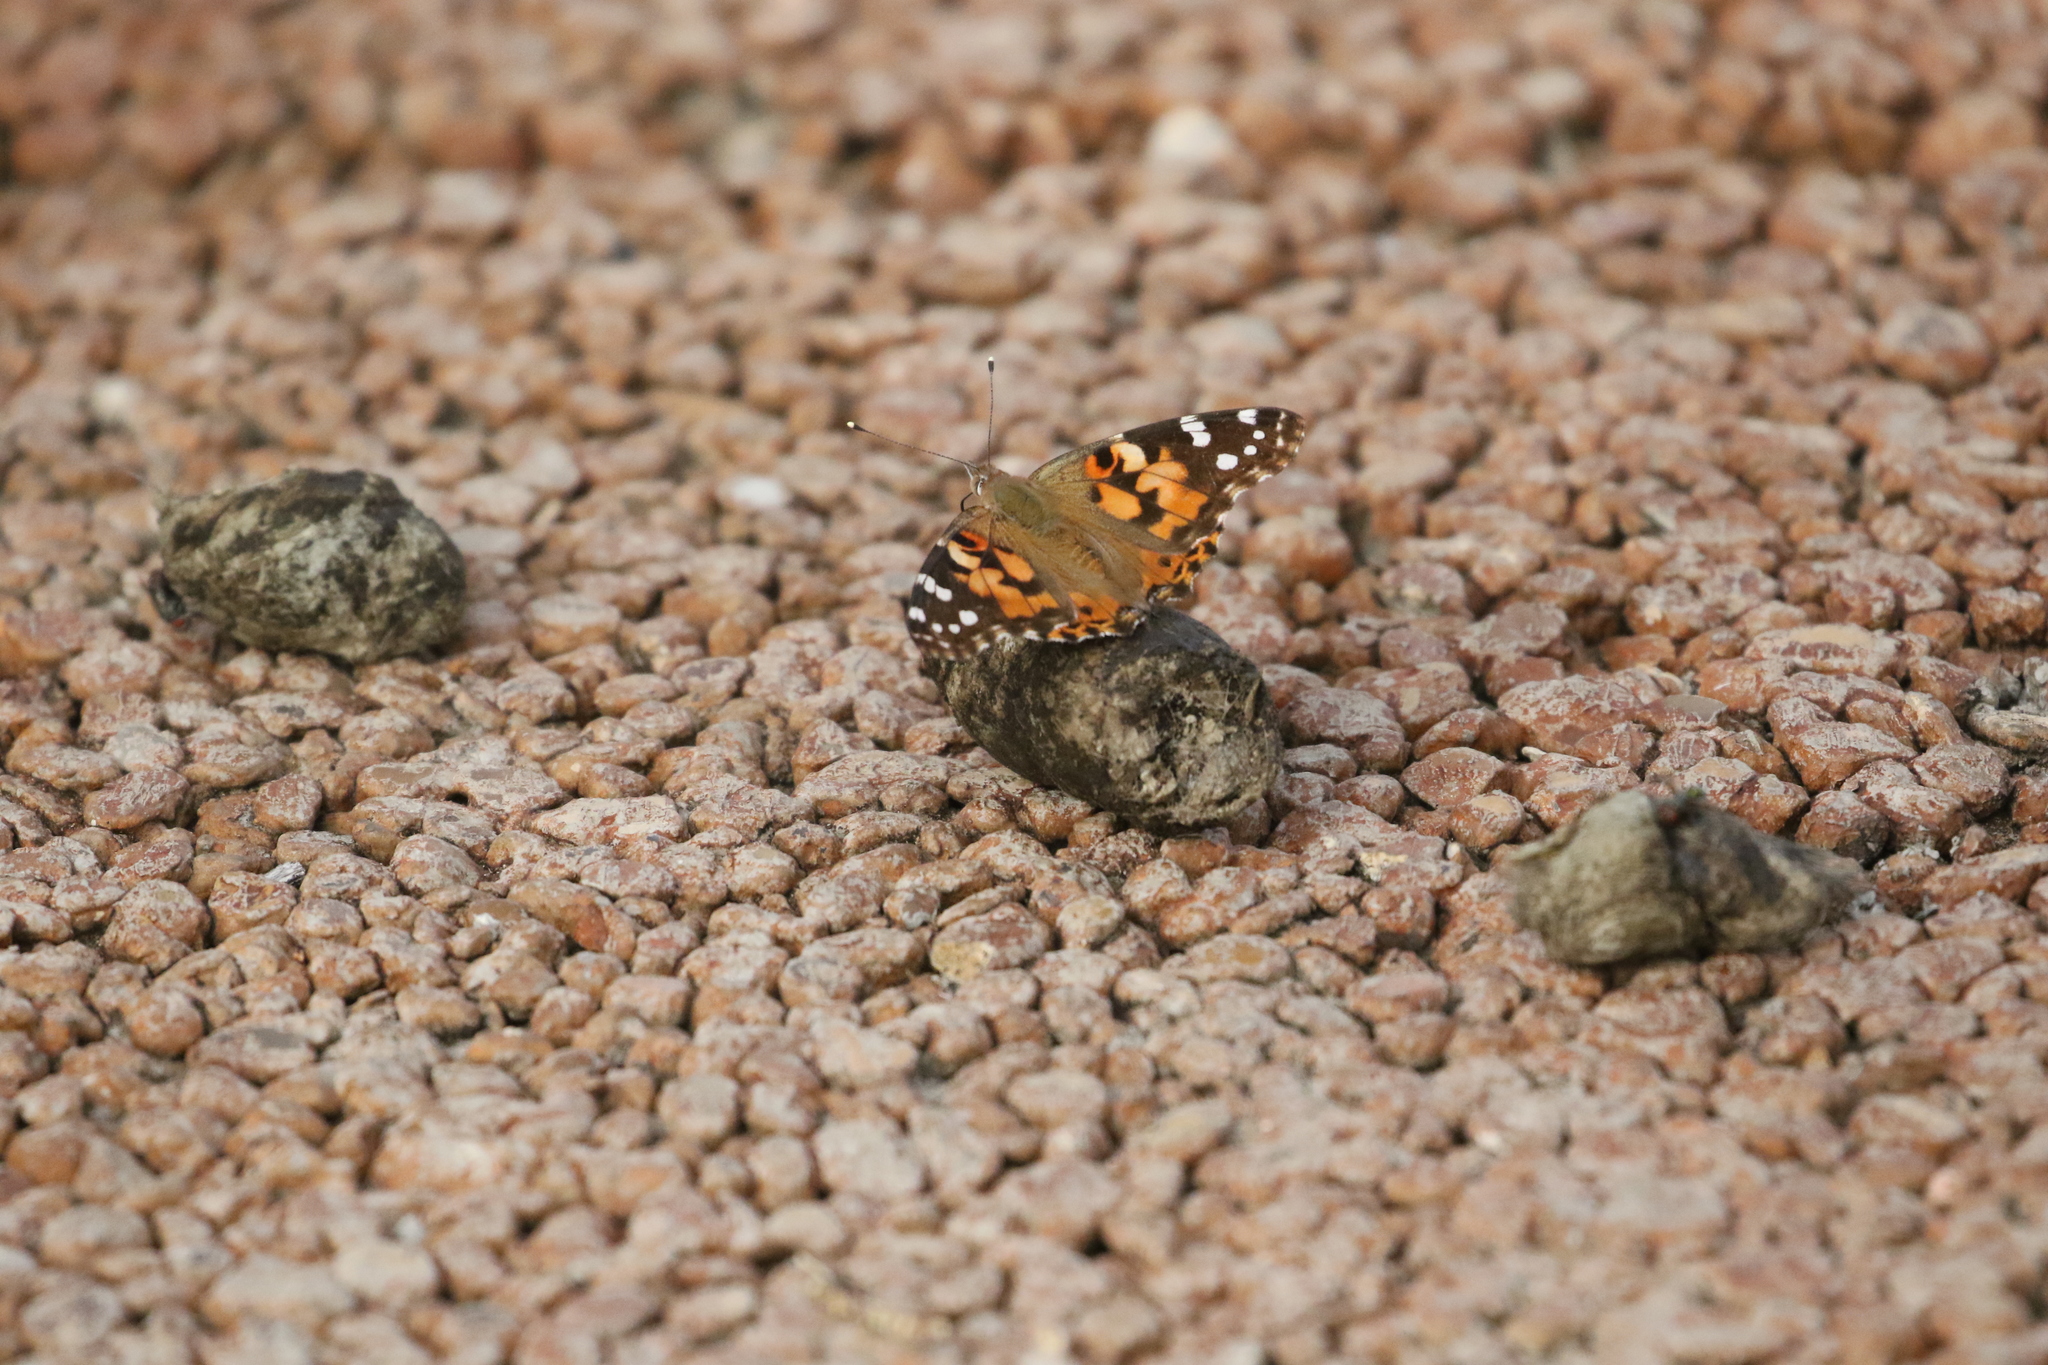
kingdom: Animalia
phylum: Arthropoda
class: Insecta
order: Lepidoptera
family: Nymphalidae
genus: Vanessa
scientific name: Vanessa cardui
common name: Painted lady
